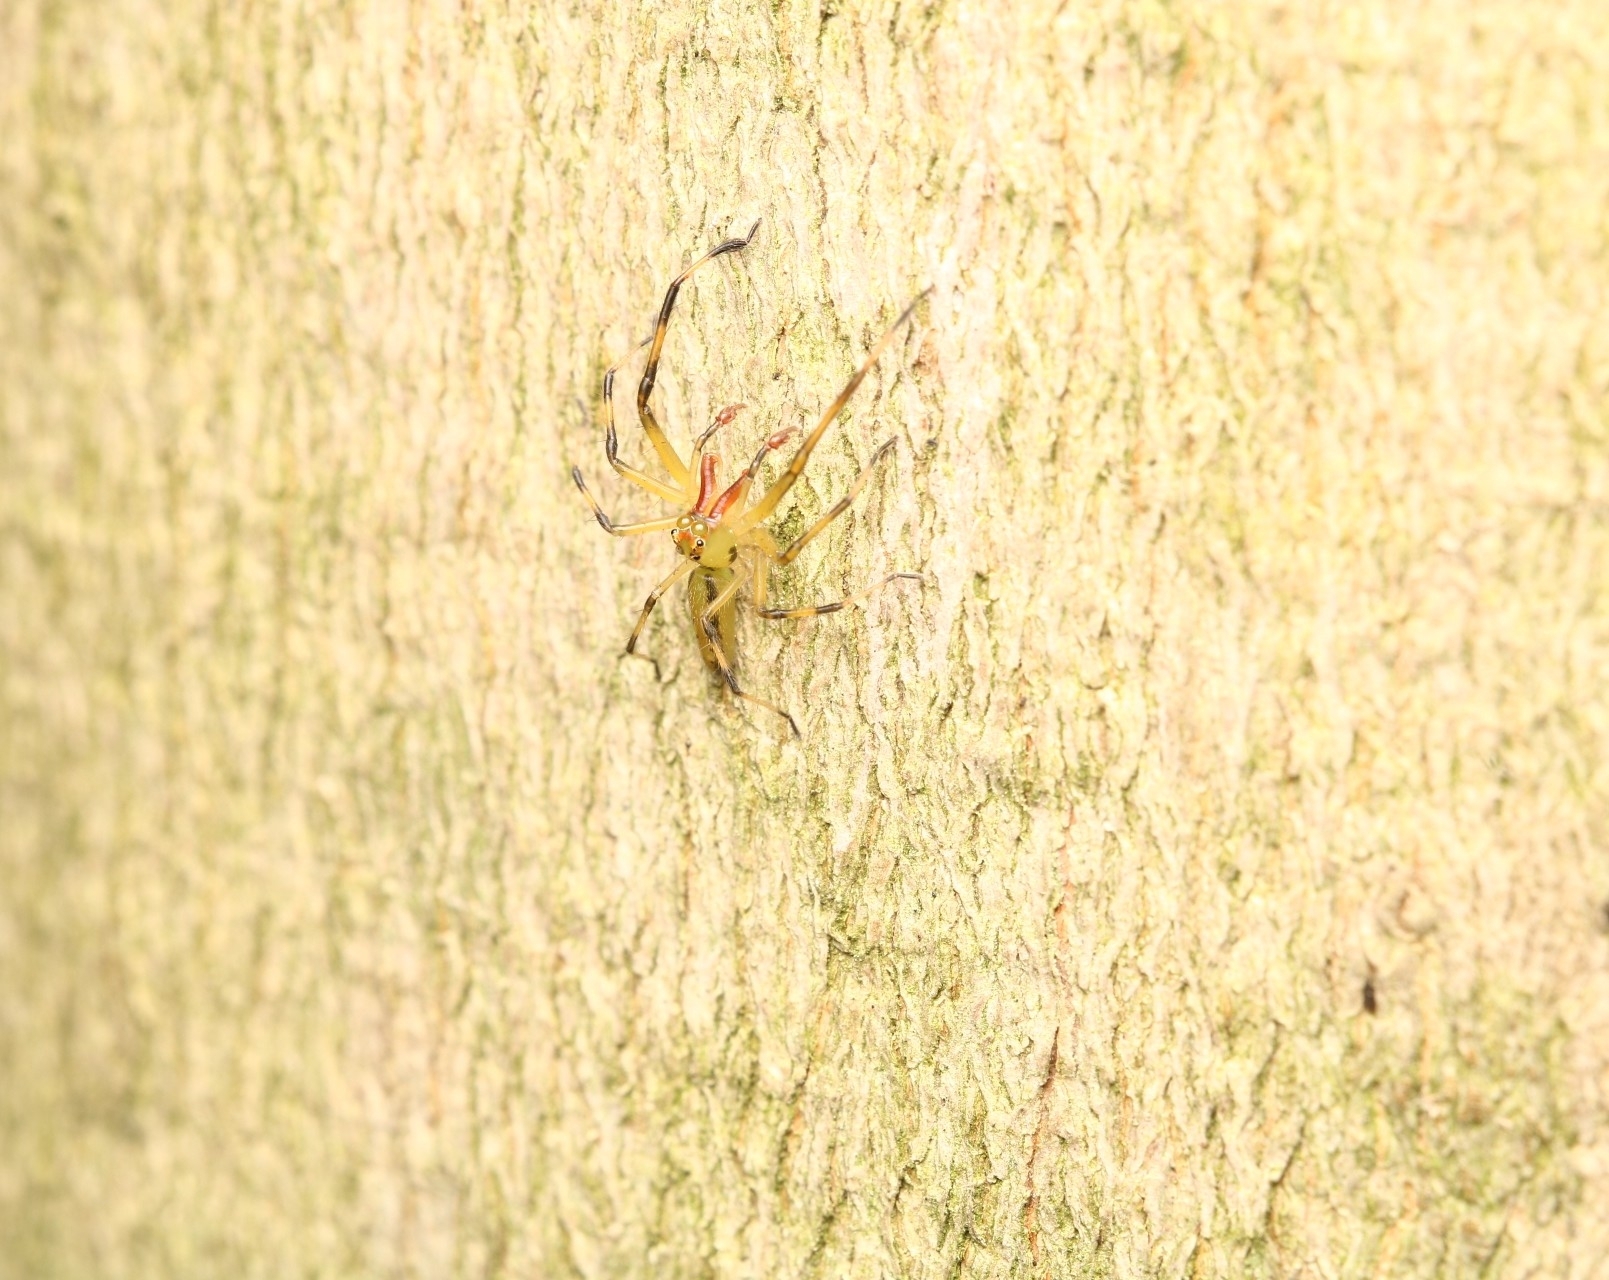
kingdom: Animalia
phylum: Arthropoda
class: Arachnida
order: Araneae
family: Salticidae
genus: Lyssomanes
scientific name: Lyssomanes viridis
